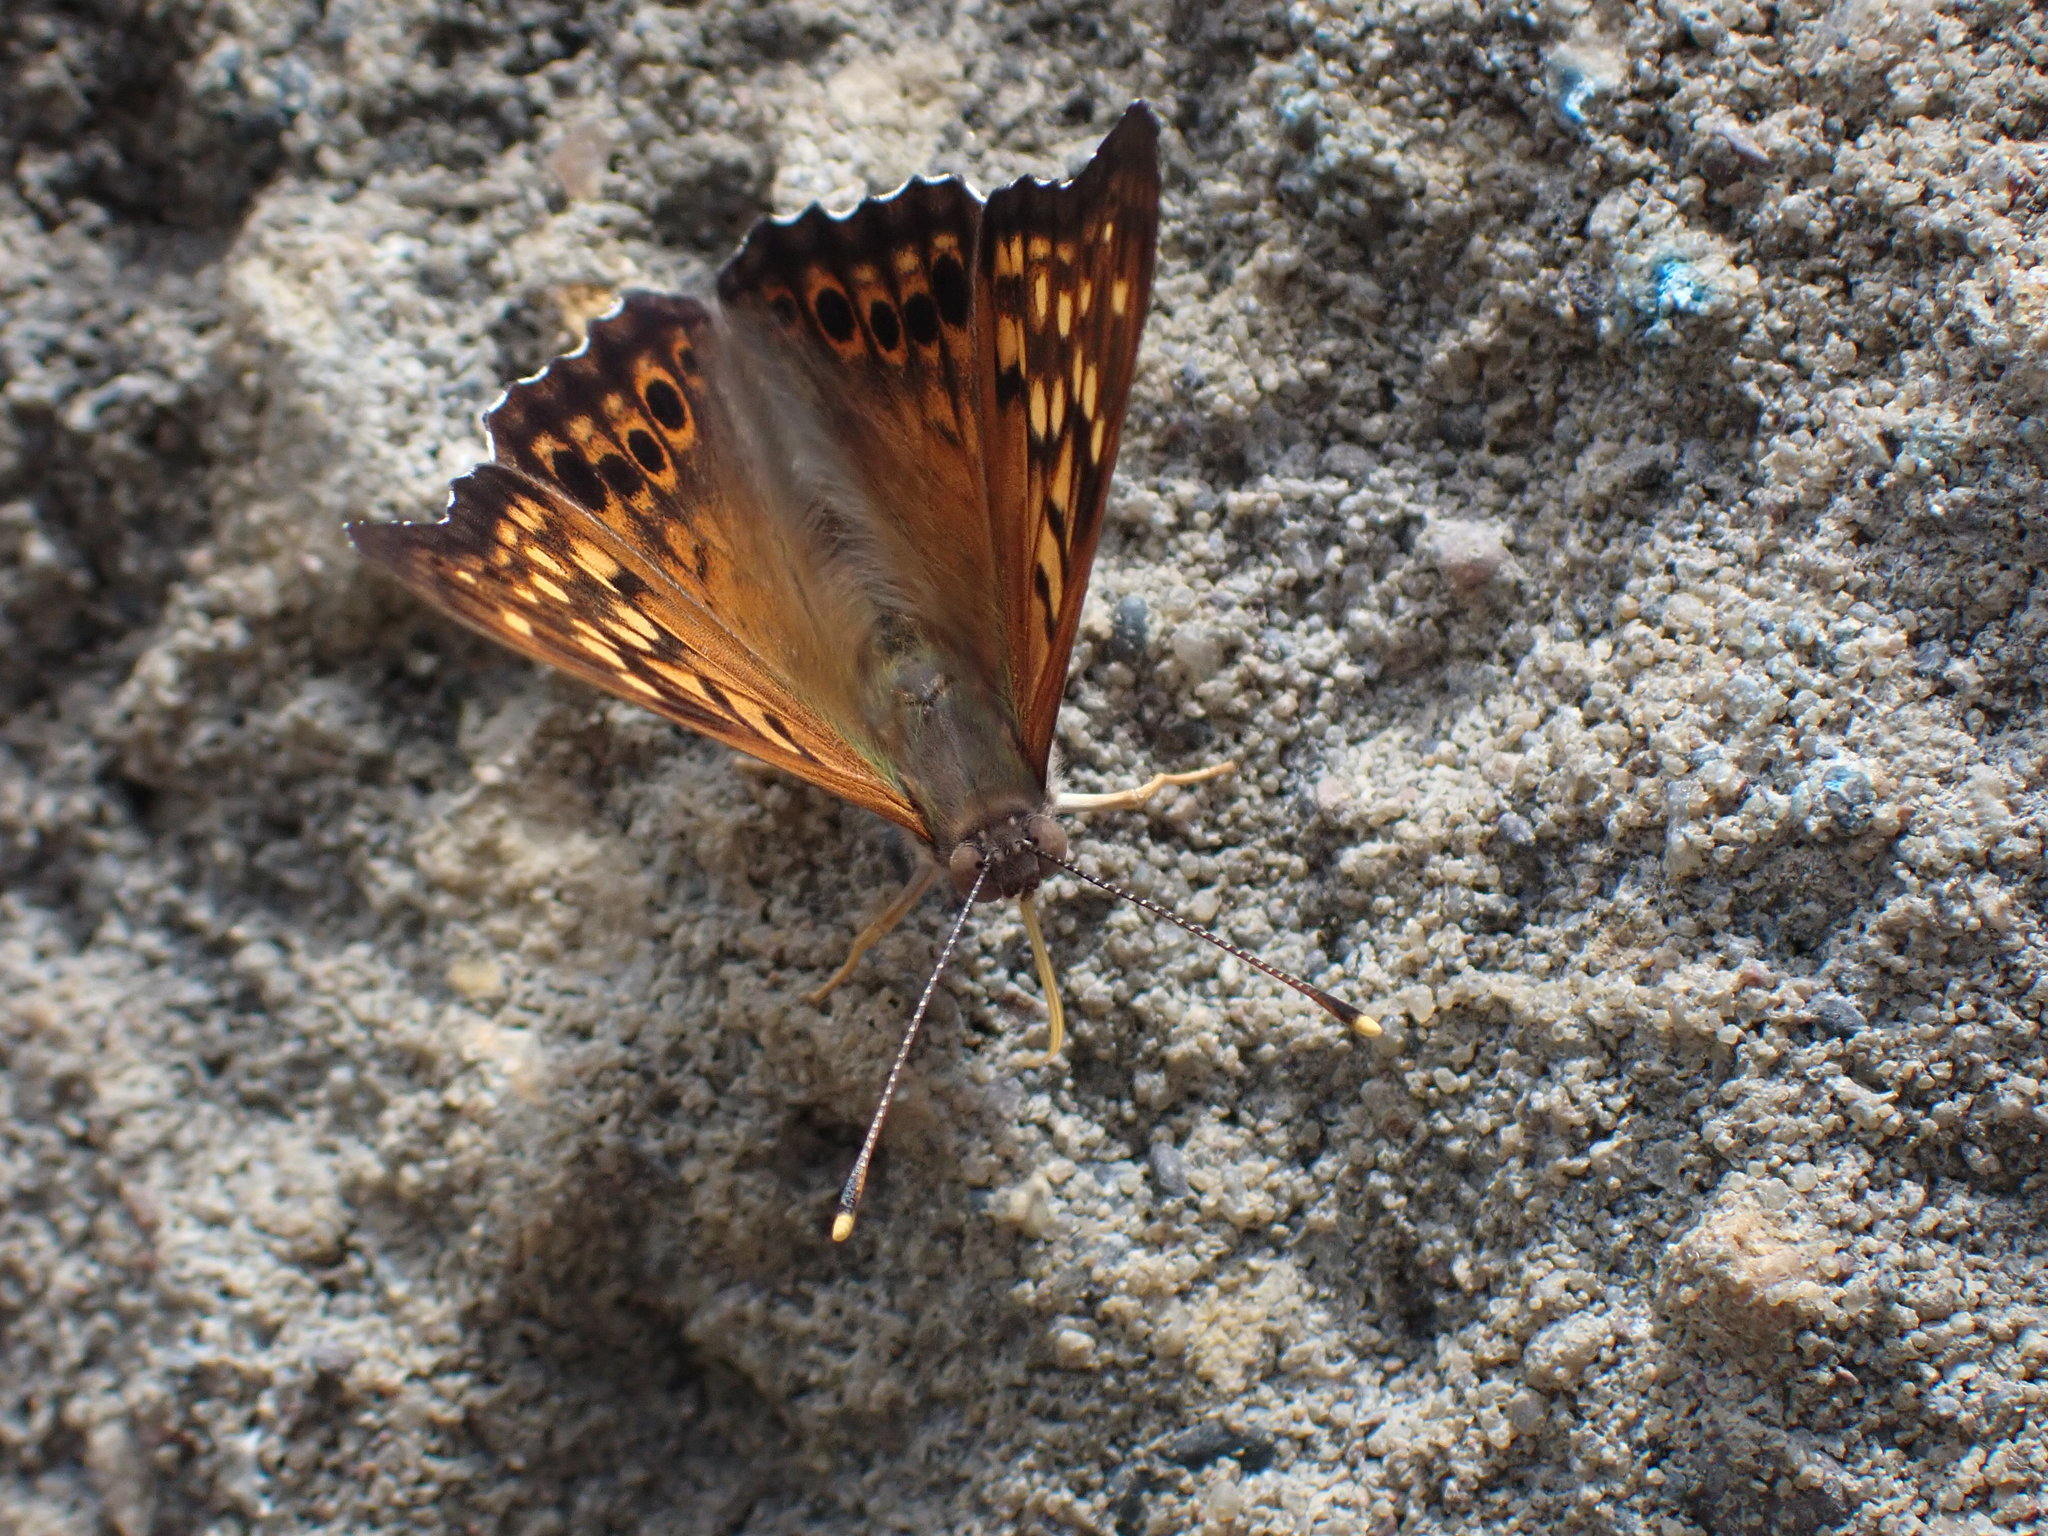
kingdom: Animalia
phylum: Arthropoda
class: Insecta
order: Lepidoptera
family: Nymphalidae
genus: Asterocampa
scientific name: Asterocampa clyton
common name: Tawny emperor
